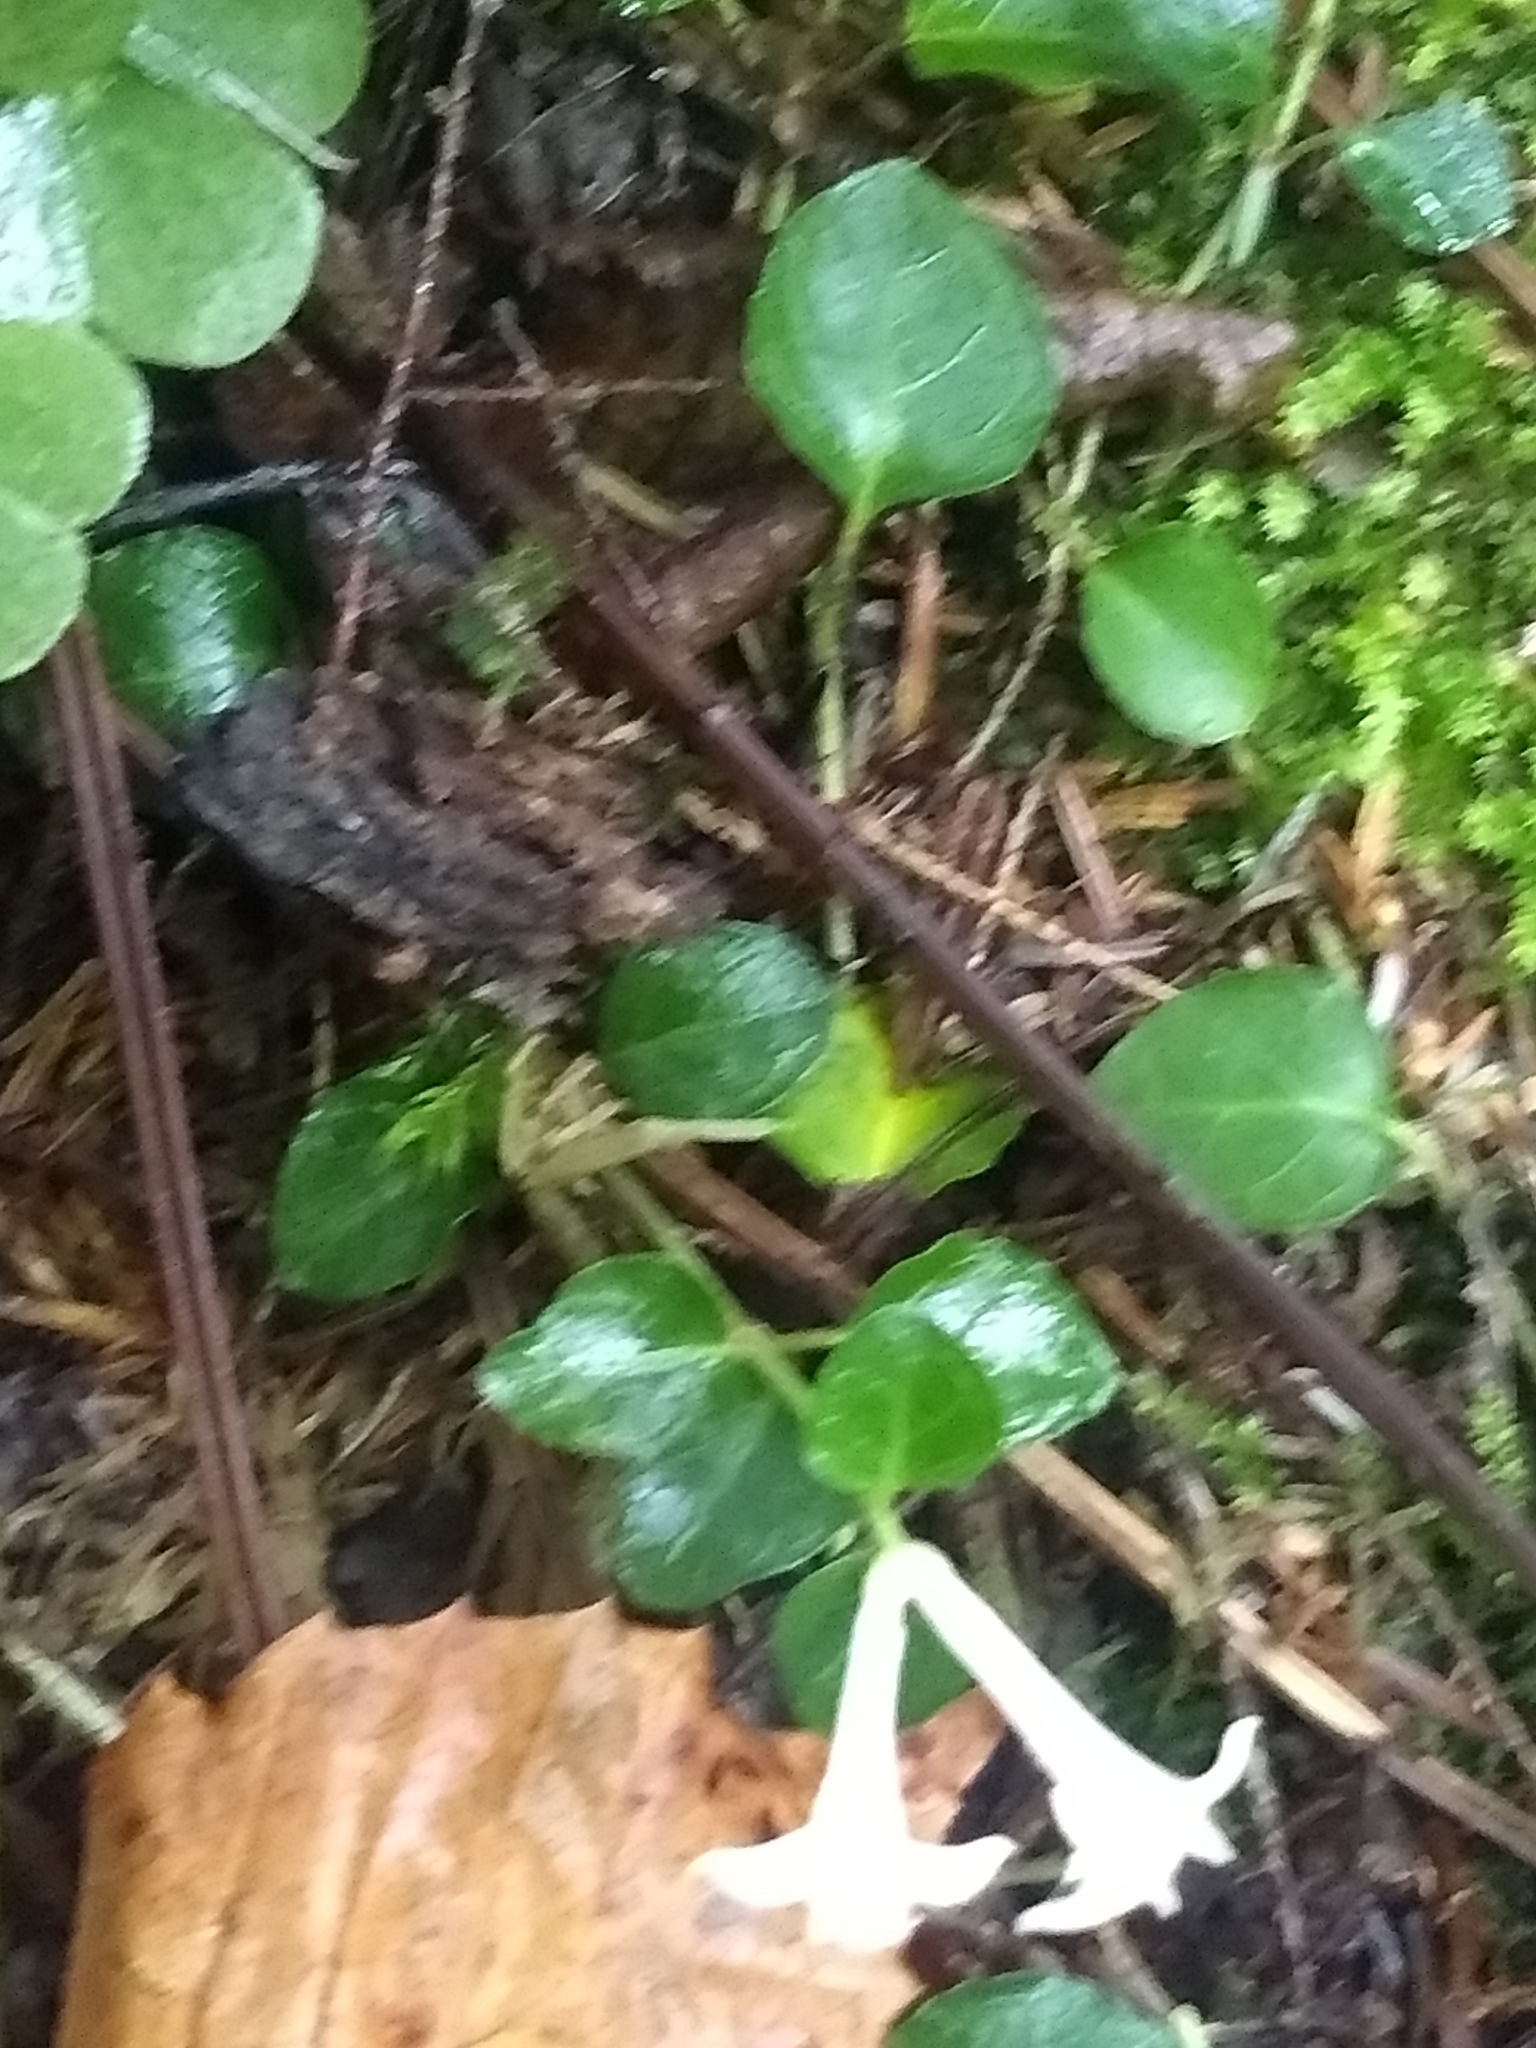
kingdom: Plantae
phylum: Tracheophyta
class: Magnoliopsida
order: Gentianales
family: Rubiaceae
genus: Mitchella
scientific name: Mitchella repens
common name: Partridge-berry
